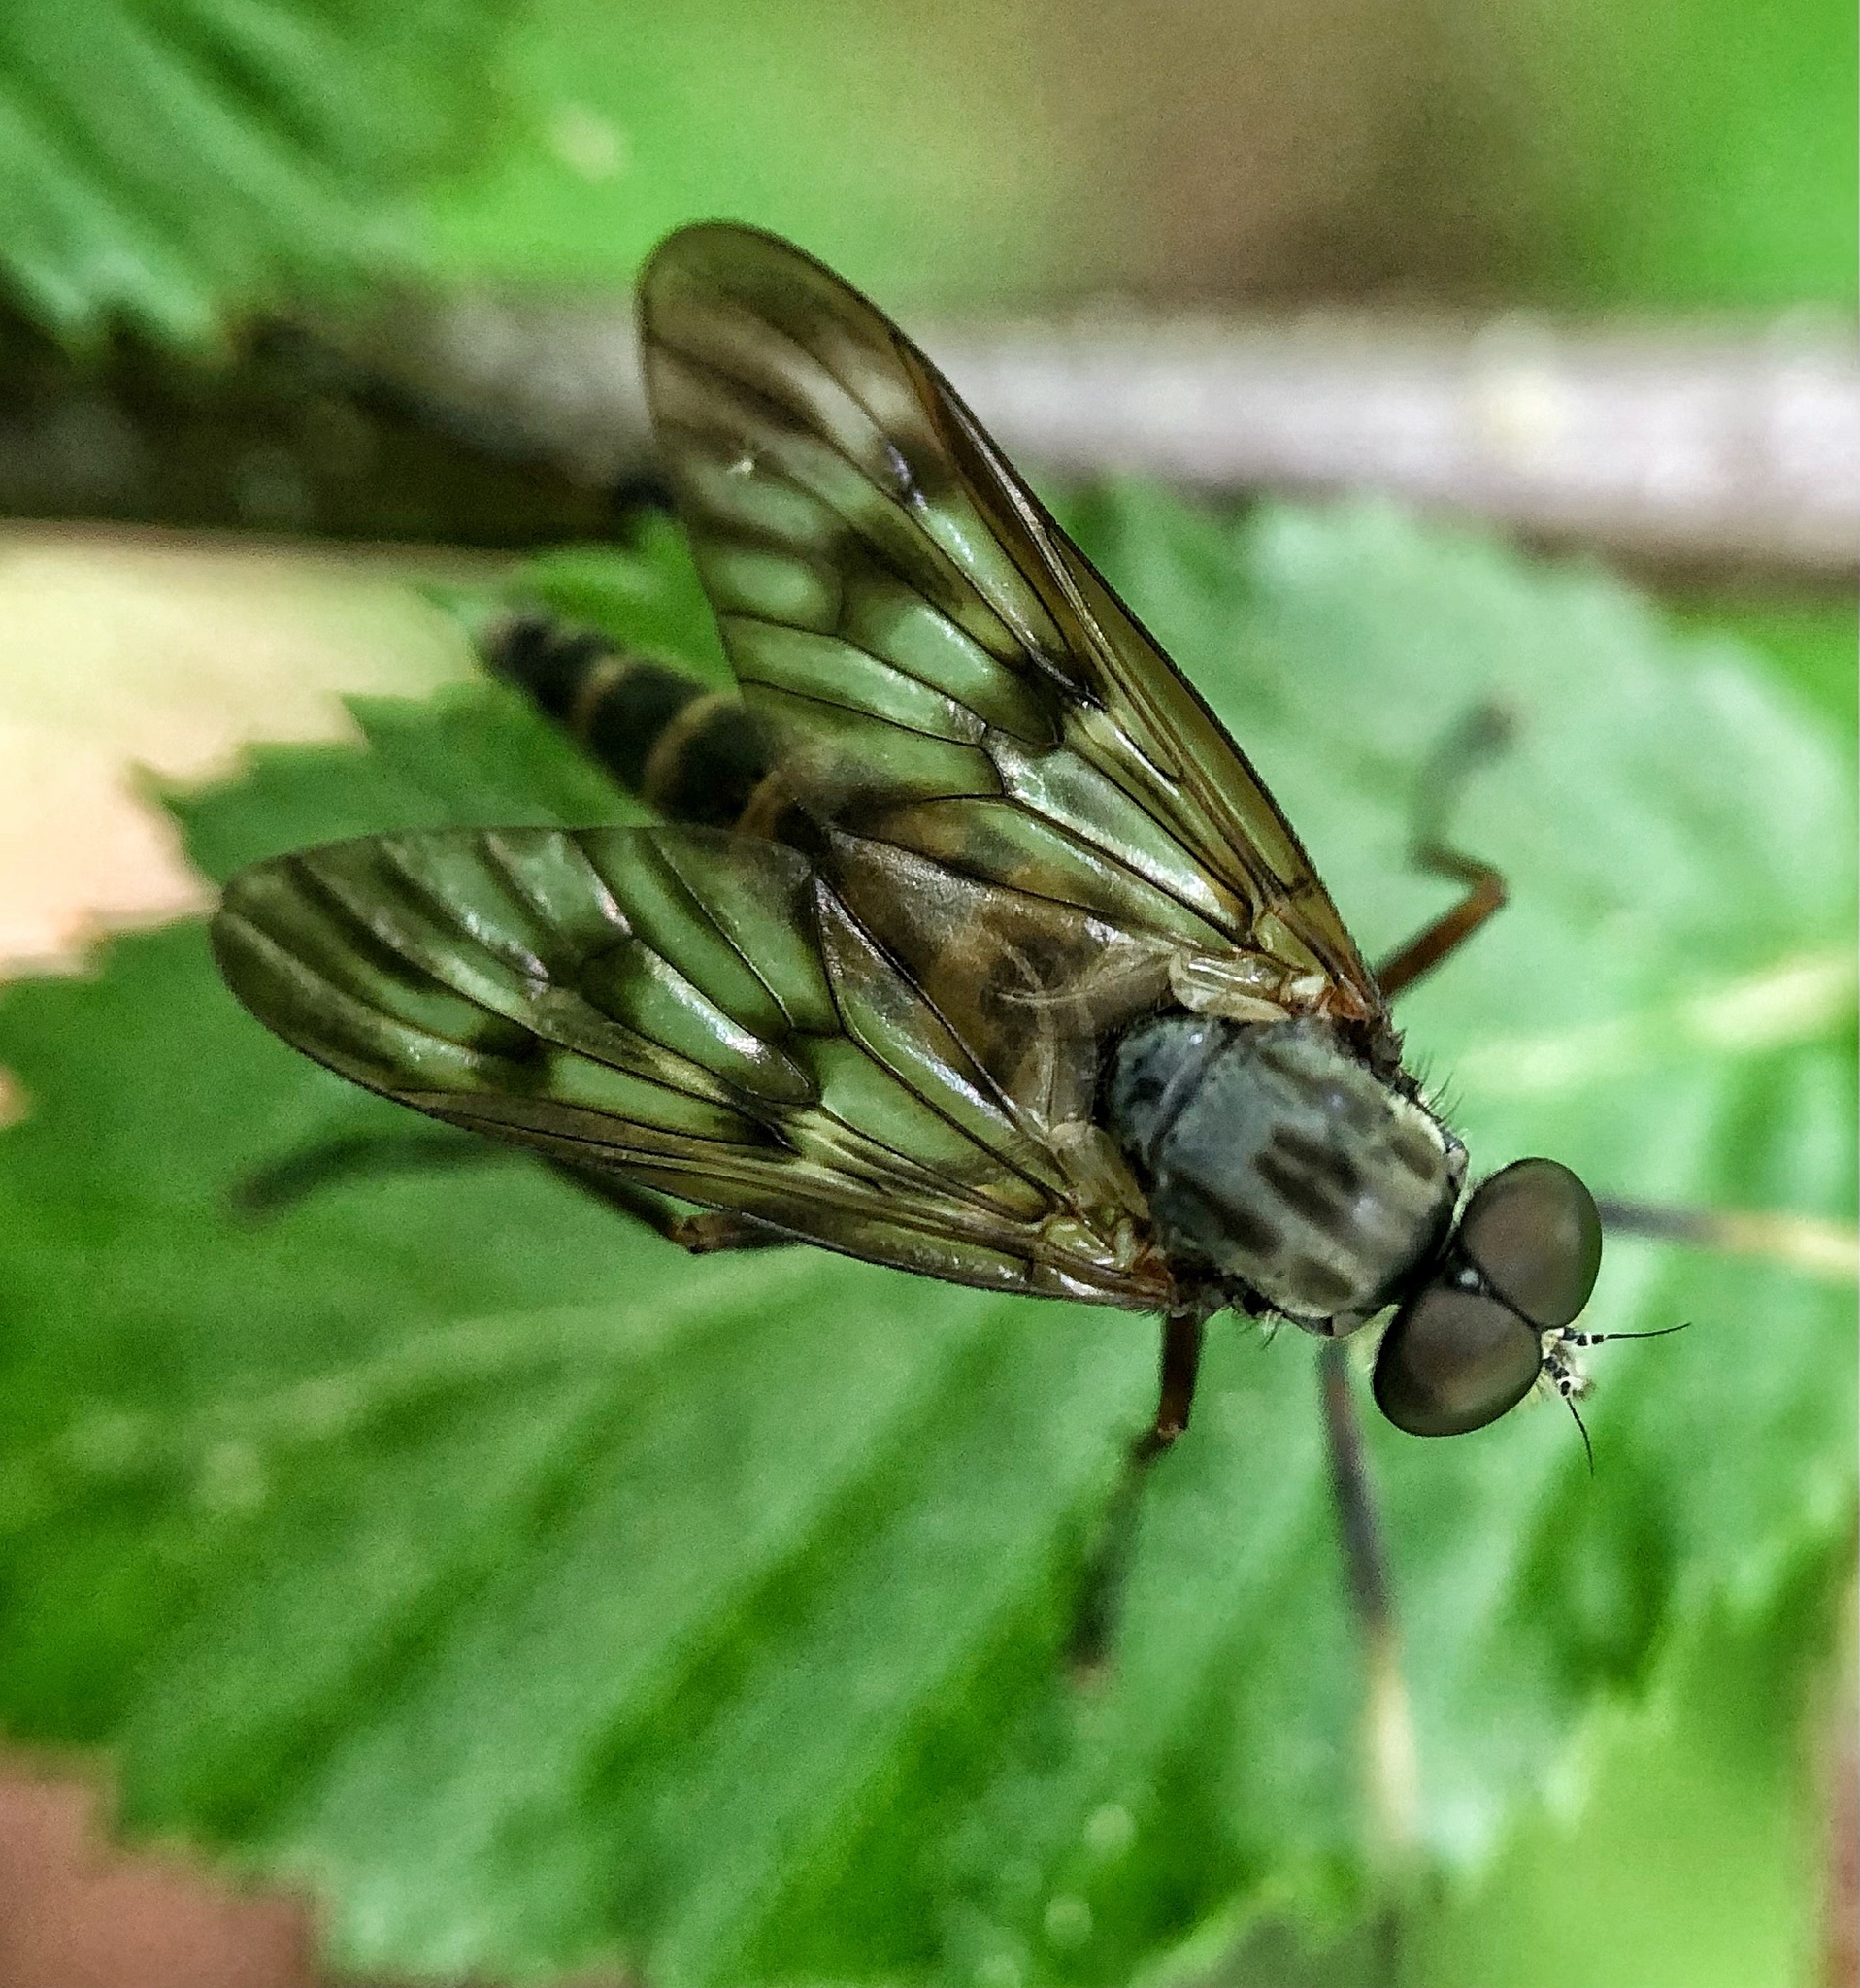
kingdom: Animalia
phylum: Arthropoda
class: Insecta
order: Diptera
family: Rhagionidae
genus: Rhagio
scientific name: Rhagio mystaceus
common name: Common snipe fly
